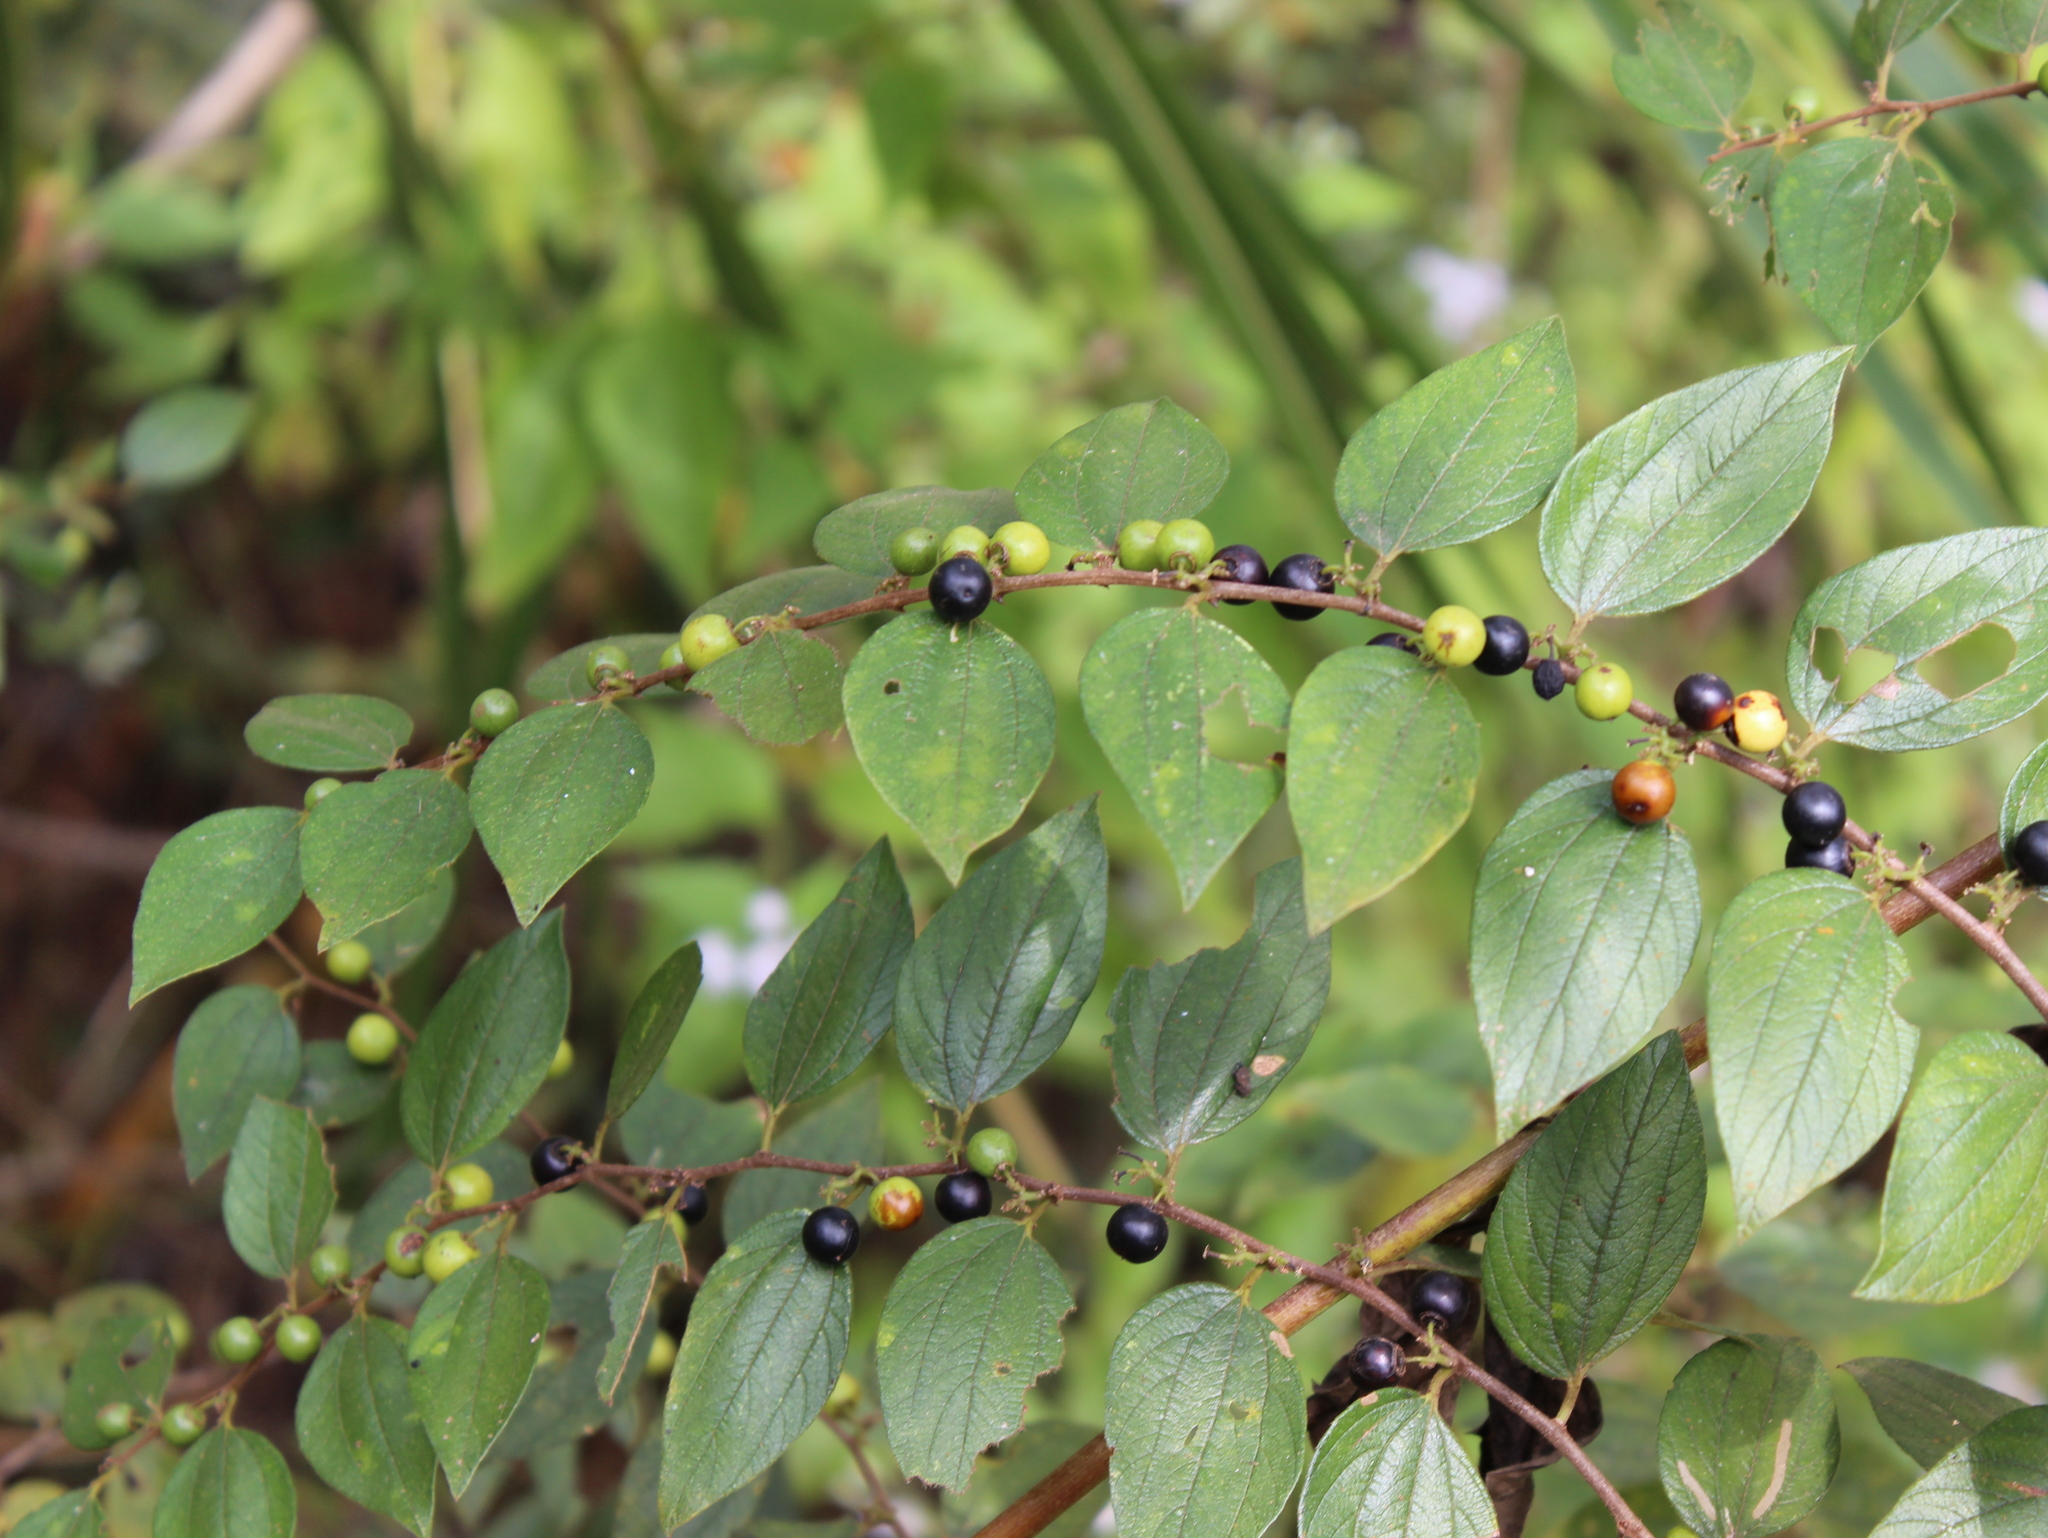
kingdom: Plantae
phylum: Tracheophyta
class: Magnoliopsida
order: Rosales
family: Rhamnaceae
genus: Ziziphus
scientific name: Ziziphus oenopolia
